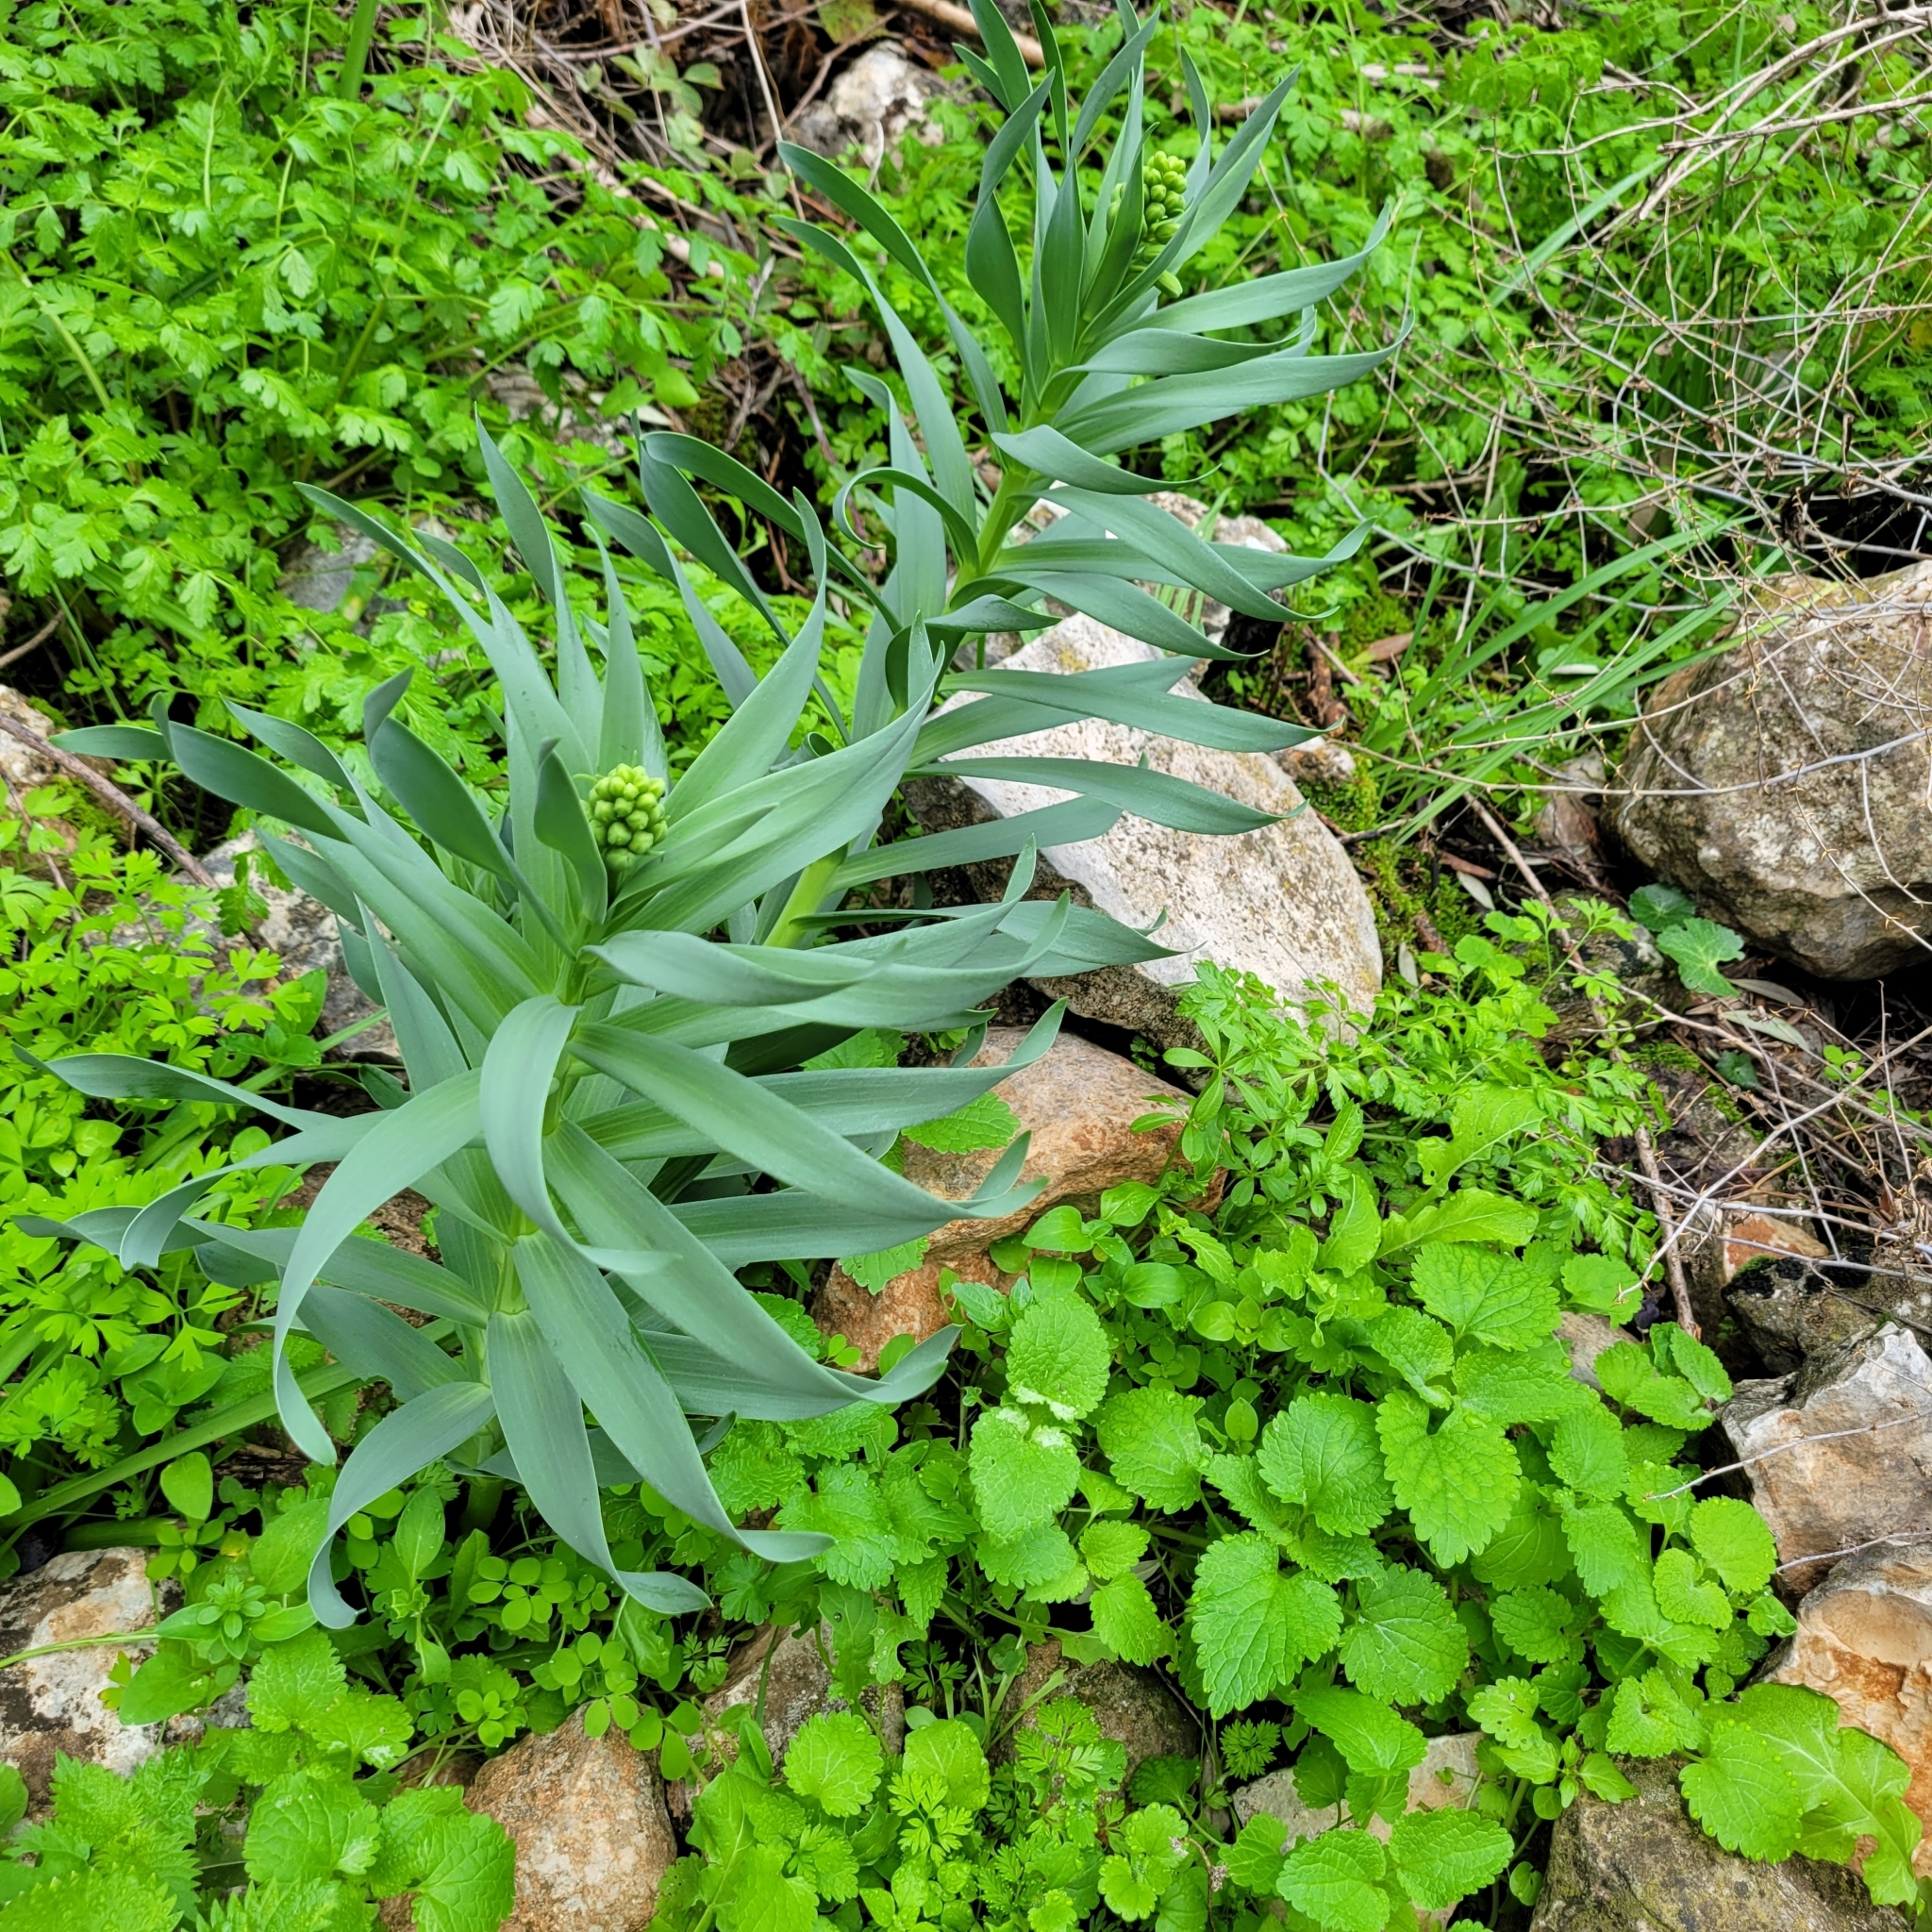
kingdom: Plantae
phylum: Tracheophyta
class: Liliopsida
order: Liliales
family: Liliaceae
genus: Fritillaria
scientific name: Fritillaria persica
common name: Persian fritillary
